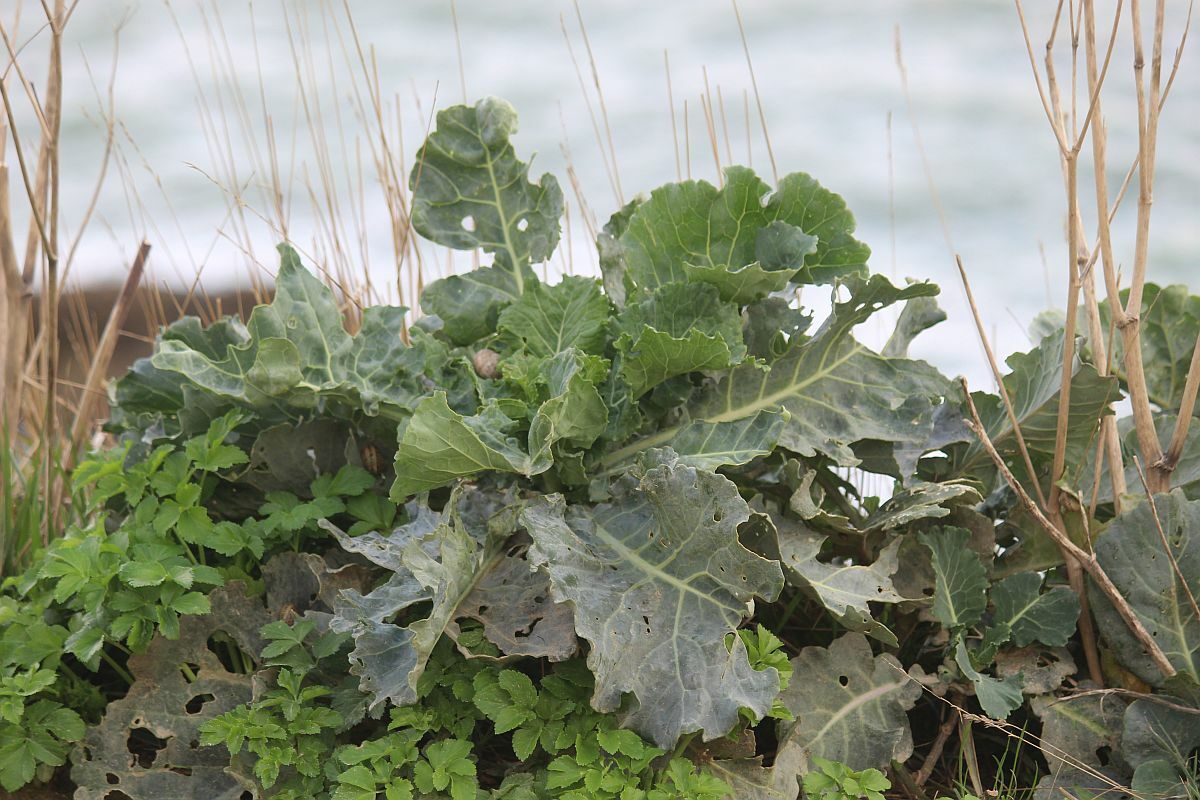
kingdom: Plantae
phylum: Tracheophyta
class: Magnoliopsida
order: Brassicales
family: Brassicaceae
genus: Crambe
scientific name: Crambe maritima
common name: Sea-kale
